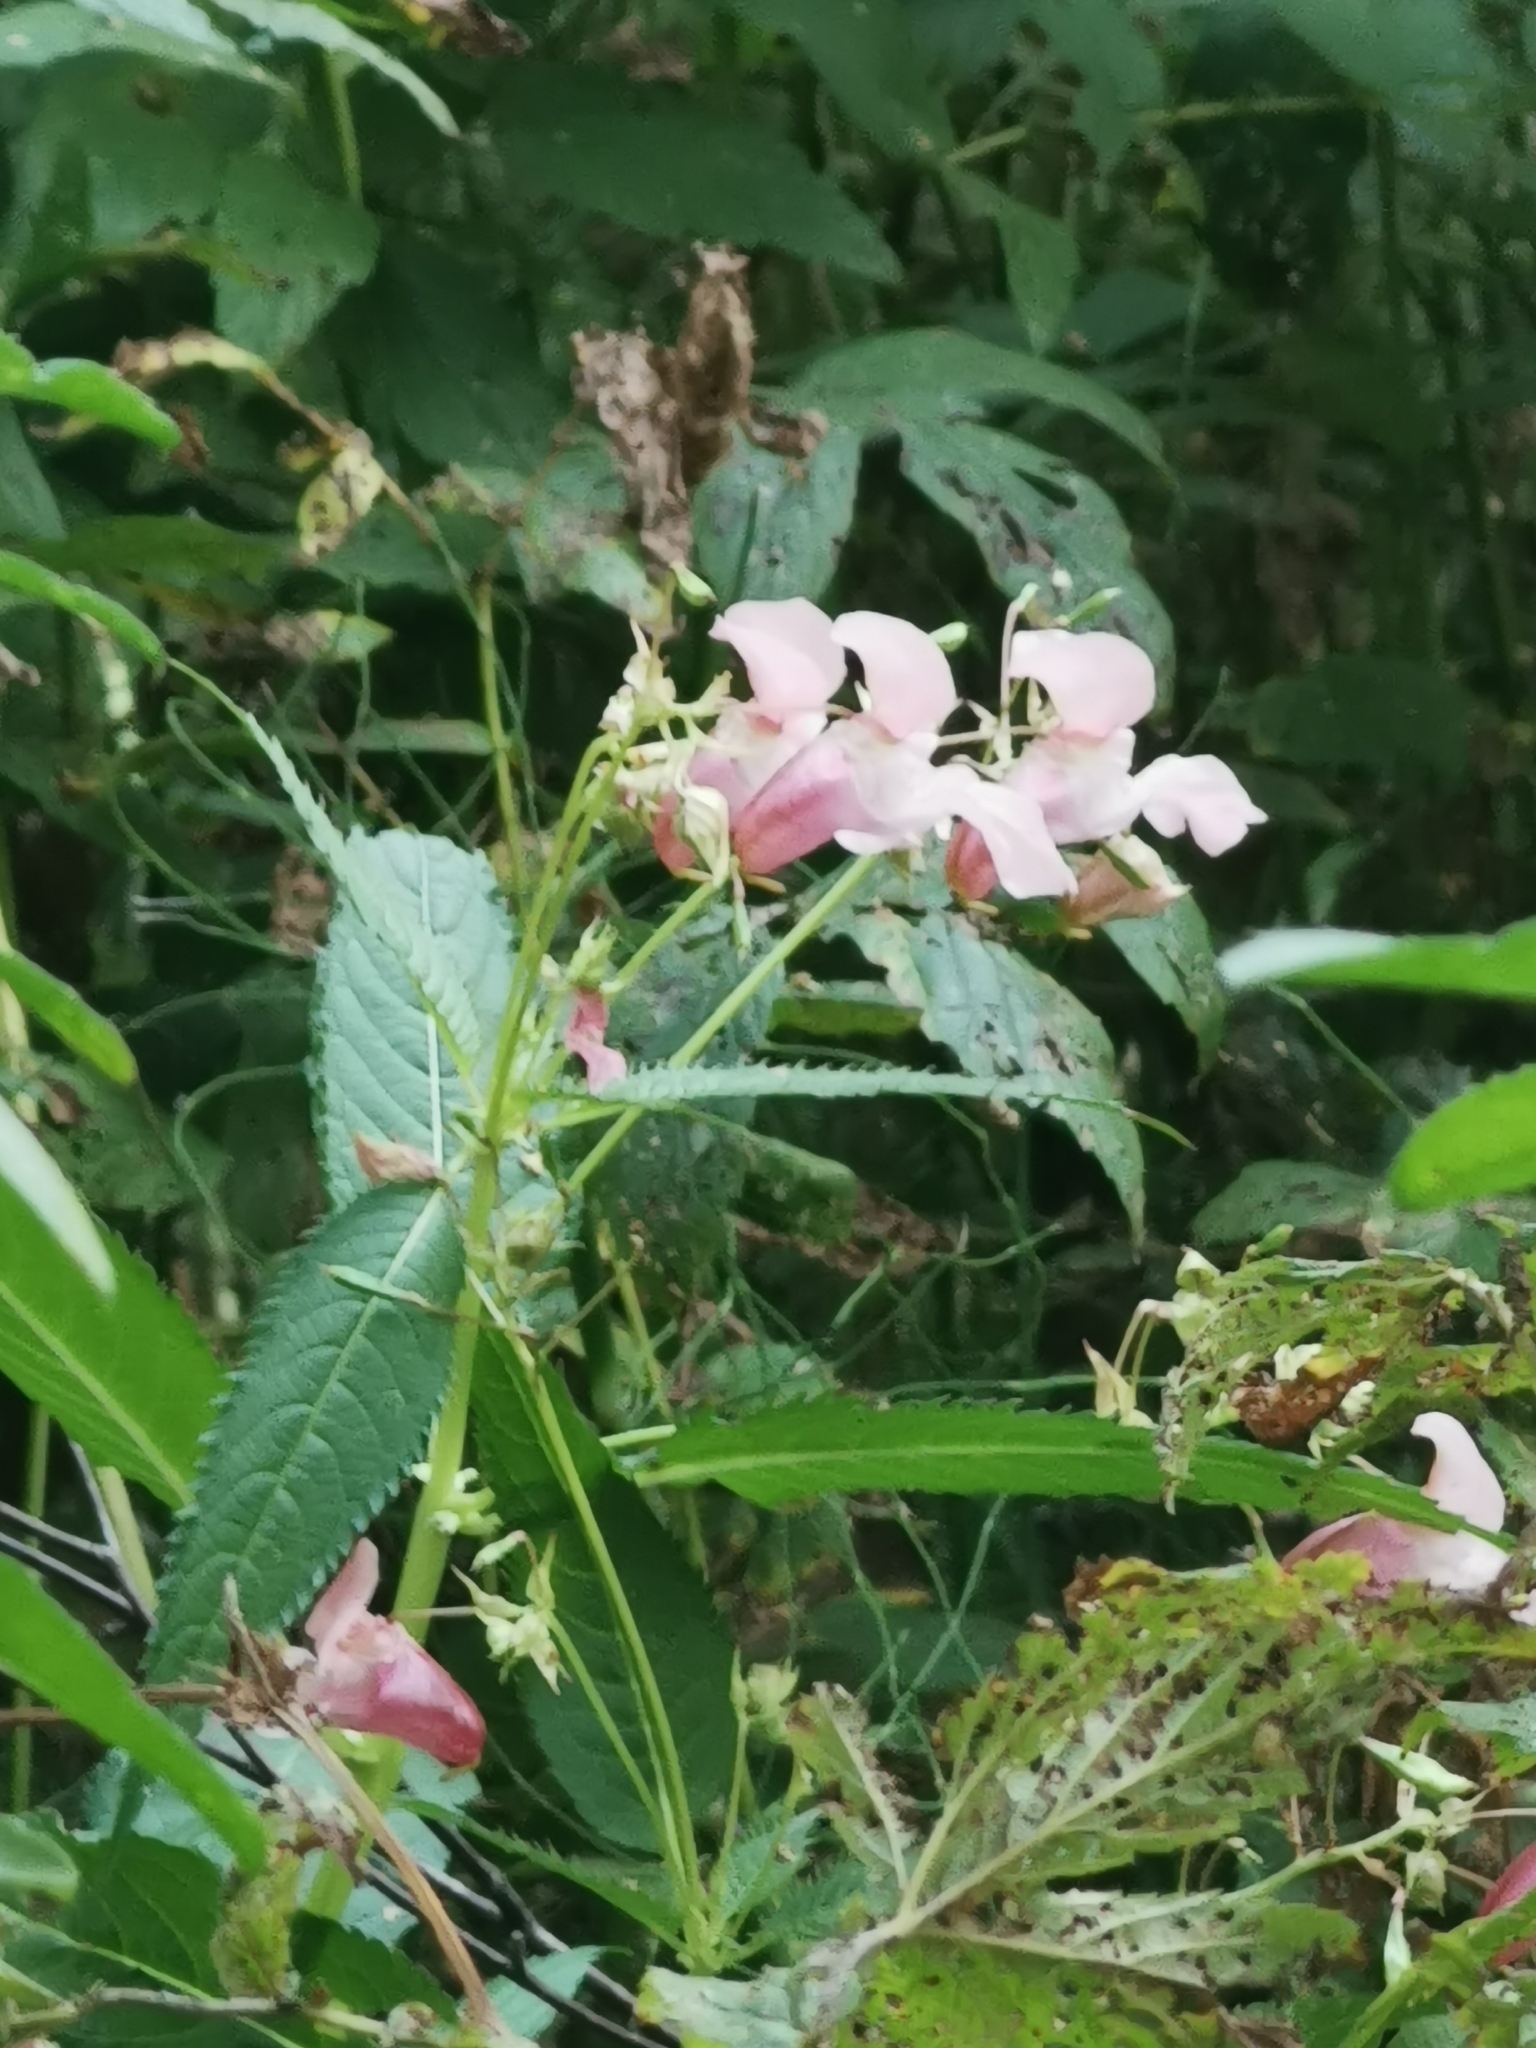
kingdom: Plantae
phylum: Tracheophyta
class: Magnoliopsida
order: Ericales
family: Balsaminaceae
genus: Impatiens
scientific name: Impatiens glandulifera
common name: Himalayan balsam
